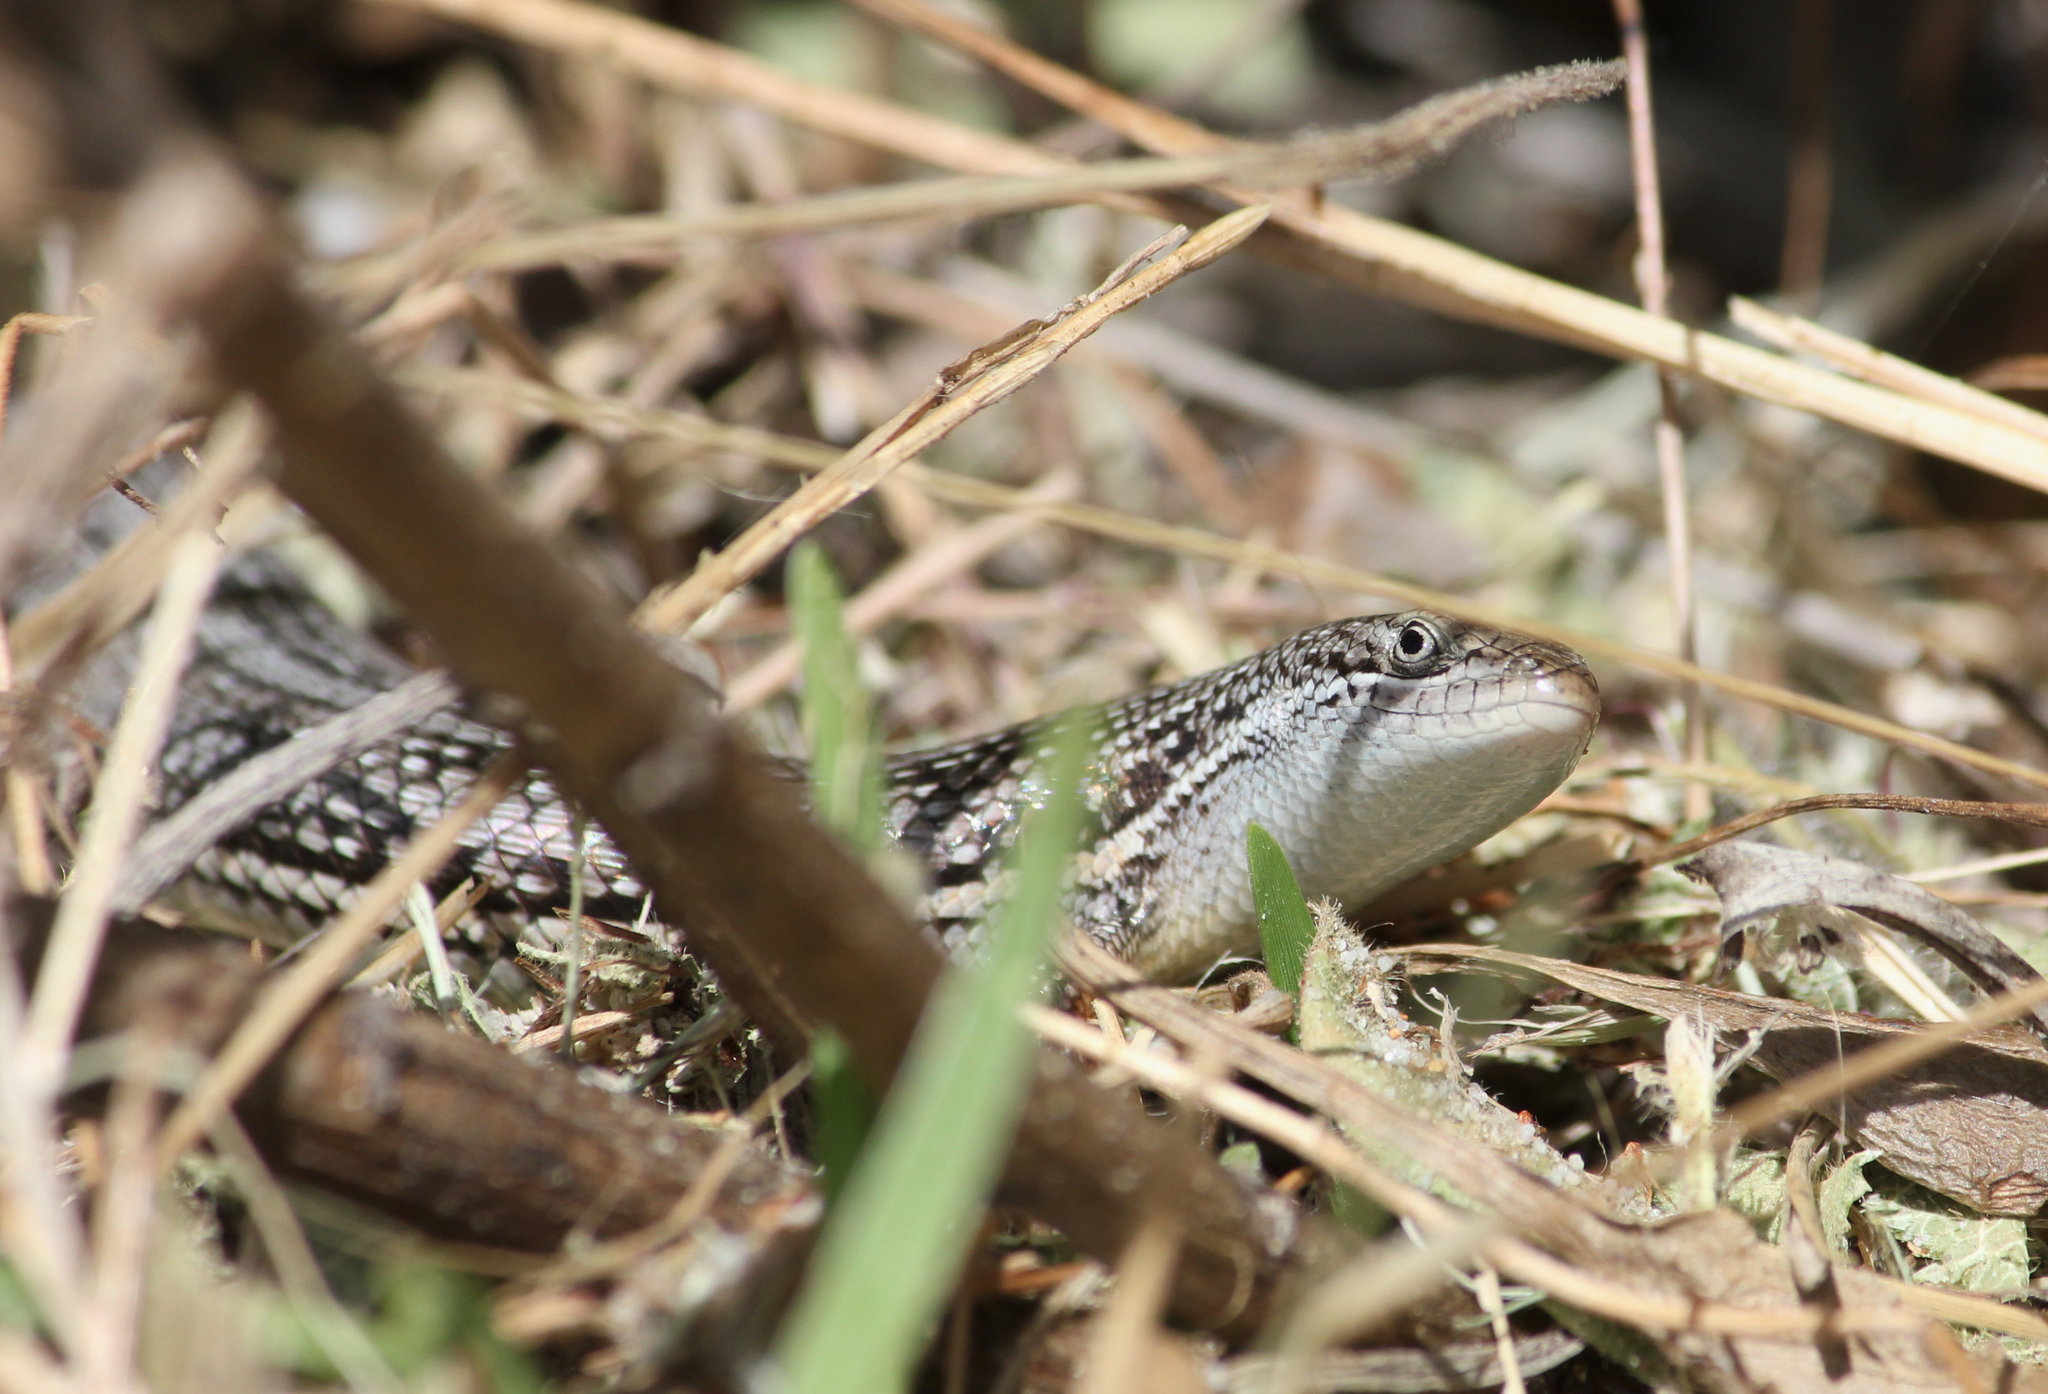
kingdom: Animalia
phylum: Chordata
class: Squamata
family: Scincidae
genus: Trachylepis
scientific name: Trachylepis homalocephala
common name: Red-sided skink
